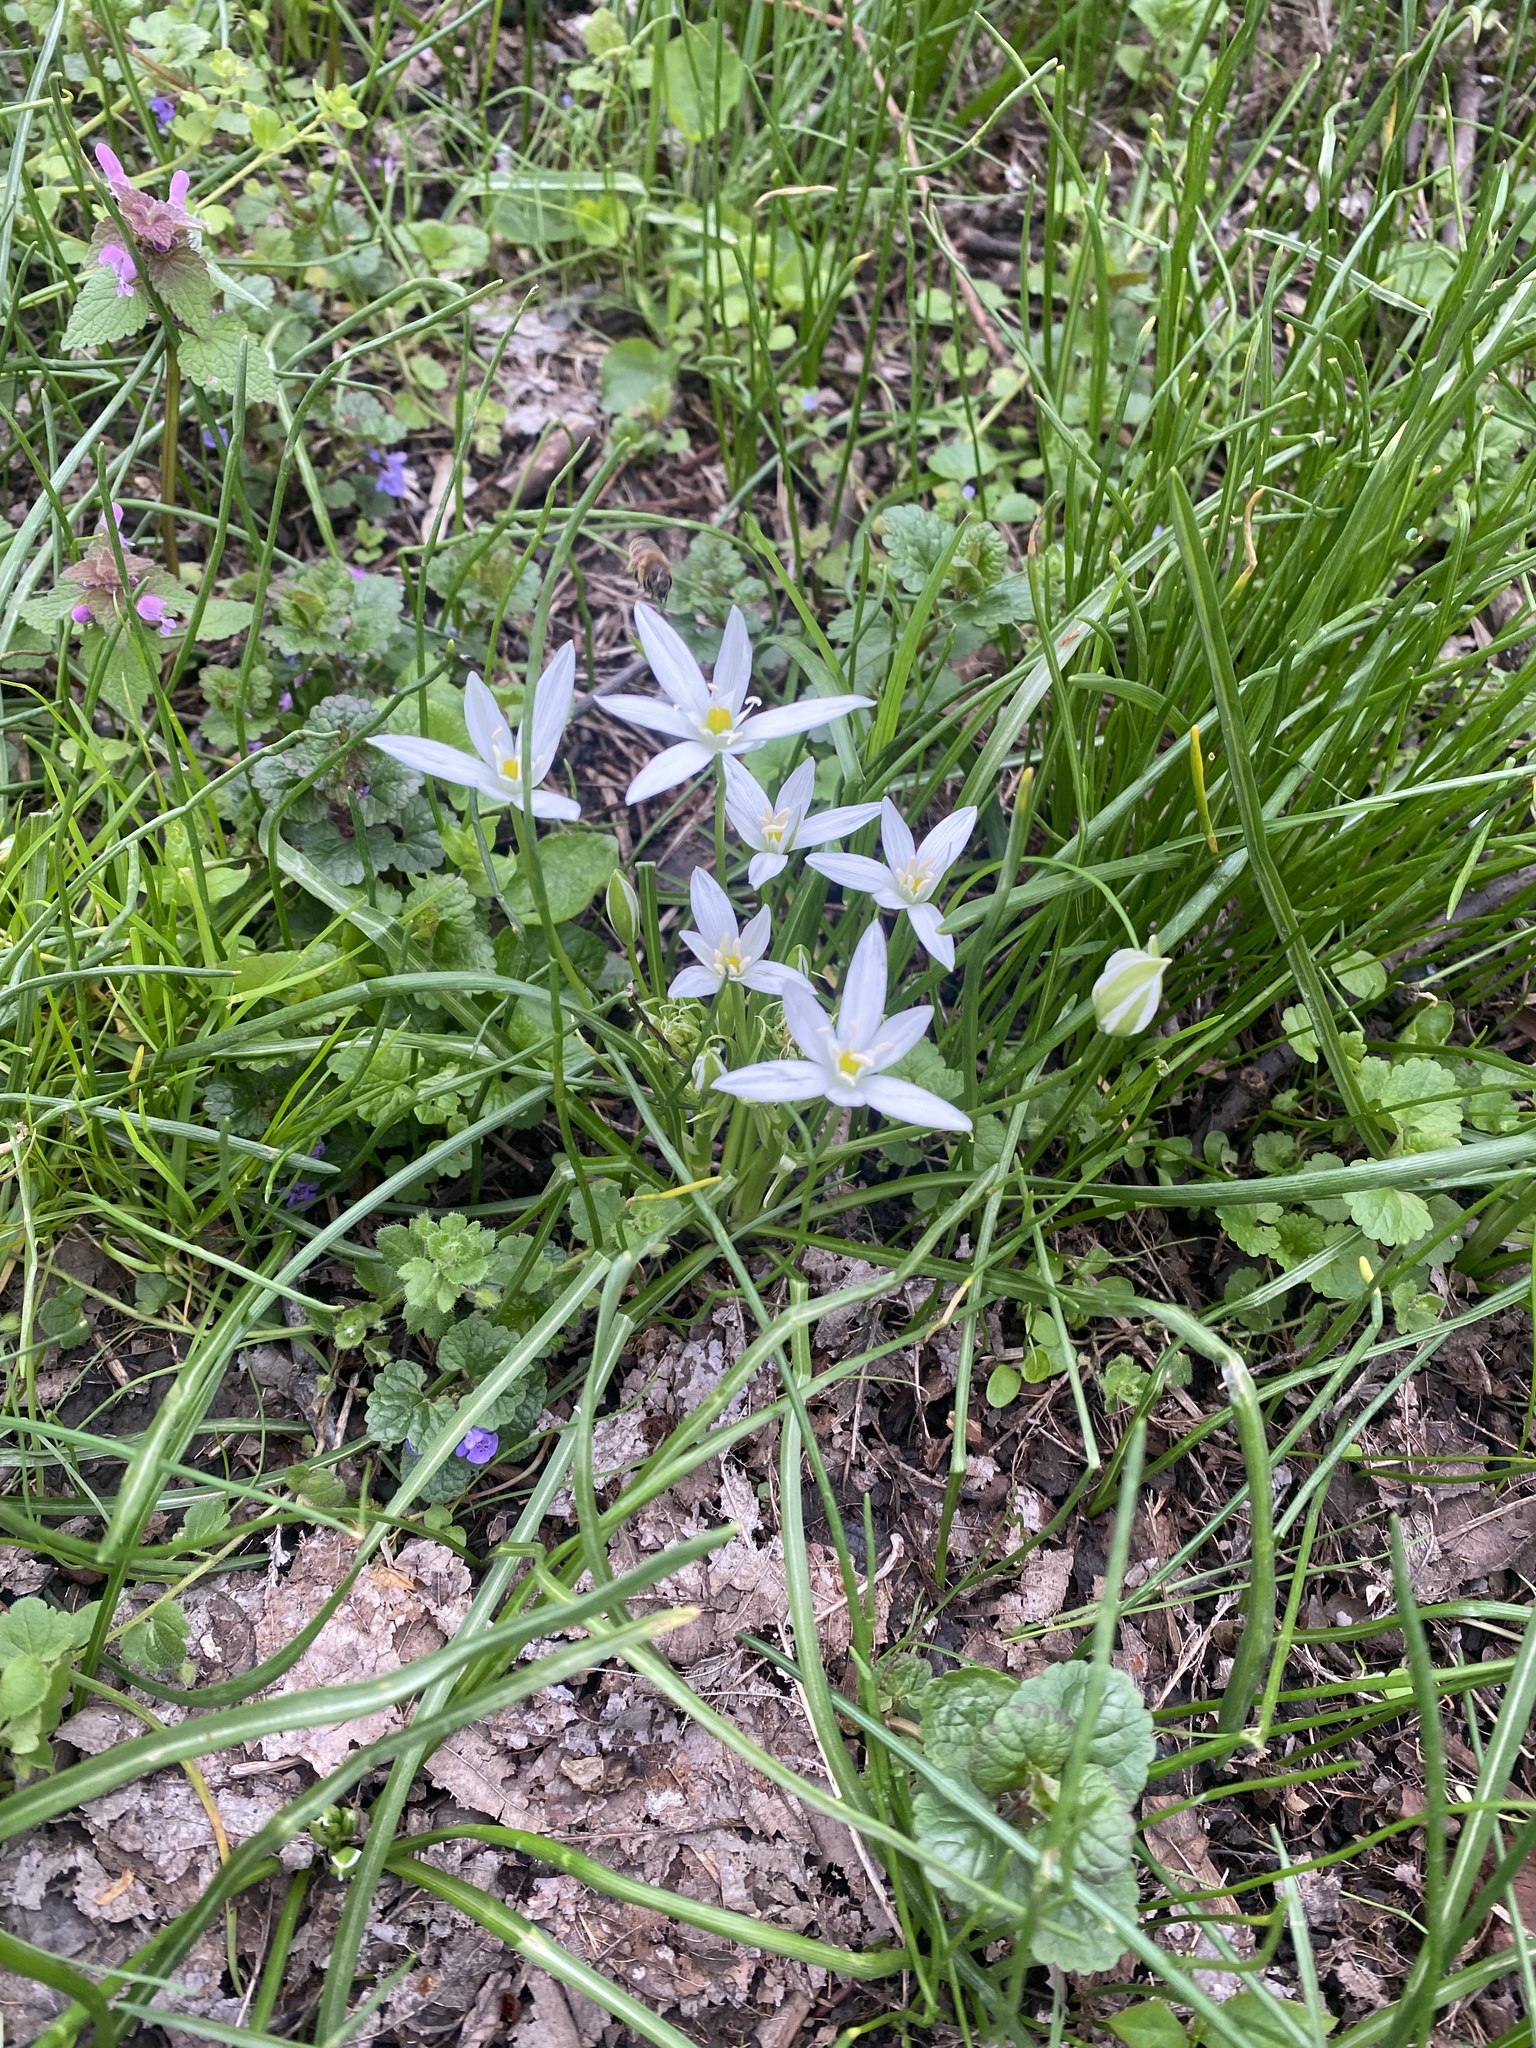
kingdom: Plantae
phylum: Tracheophyta
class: Liliopsida
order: Asparagales
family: Asparagaceae
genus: Ornithogalum
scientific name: Ornithogalum woronowii
